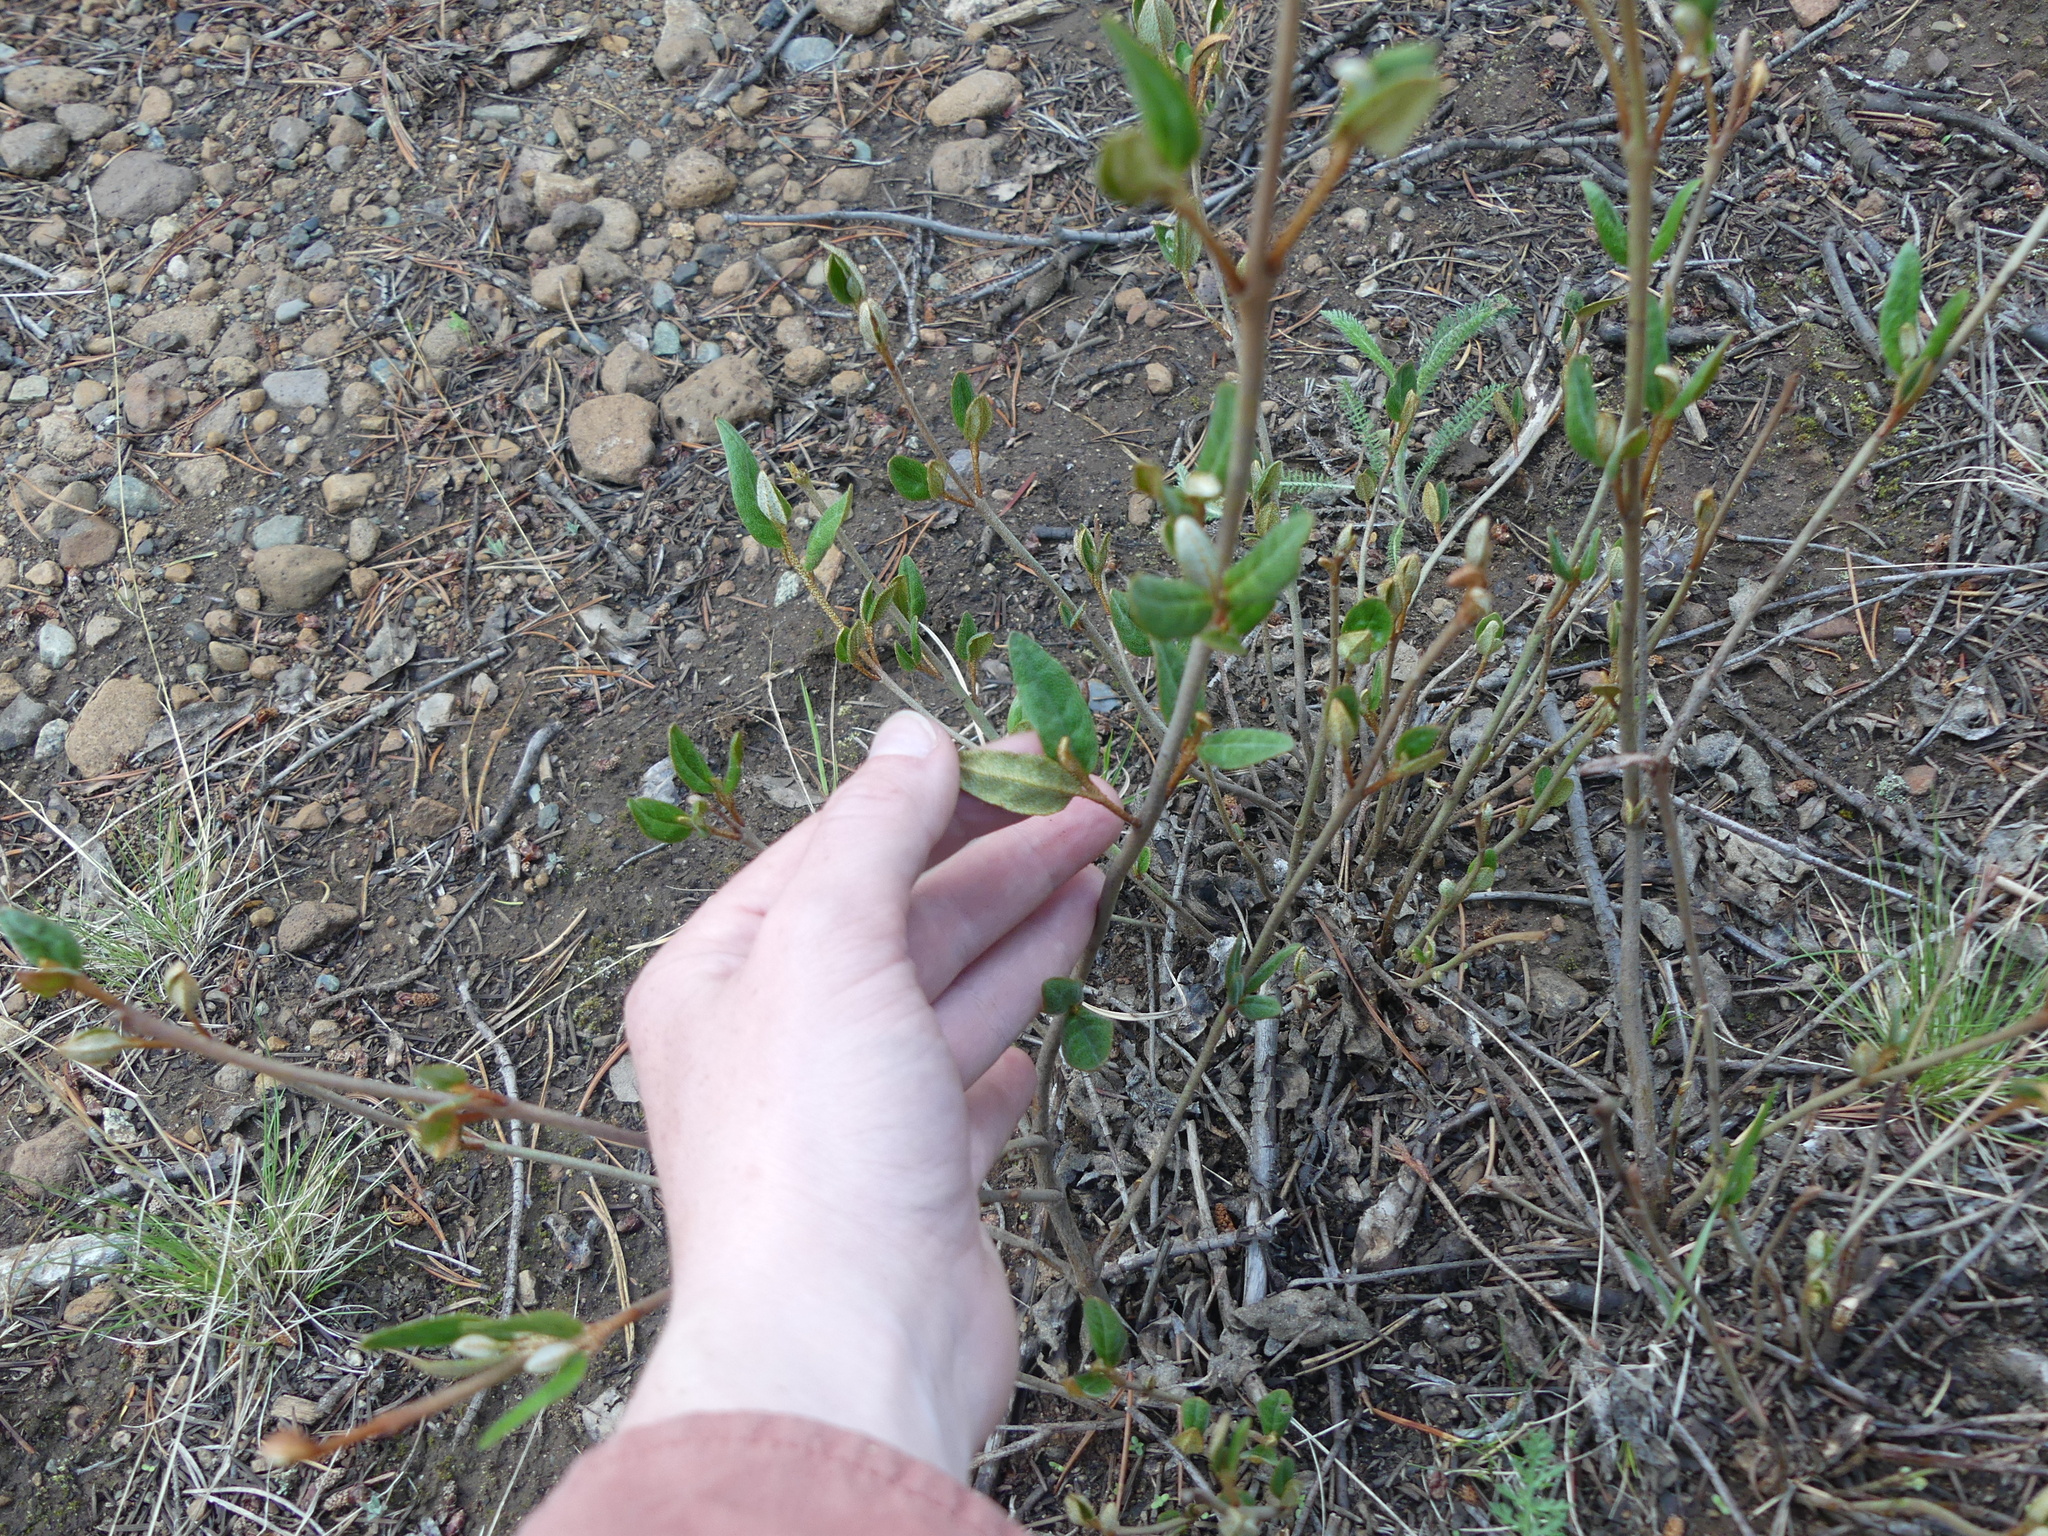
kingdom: Plantae
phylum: Tracheophyta
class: Magnoliopsida
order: Rosales
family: Elaeagnaceae
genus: Shepherdia
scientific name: Shepherdia canadensis
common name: Soapberry
